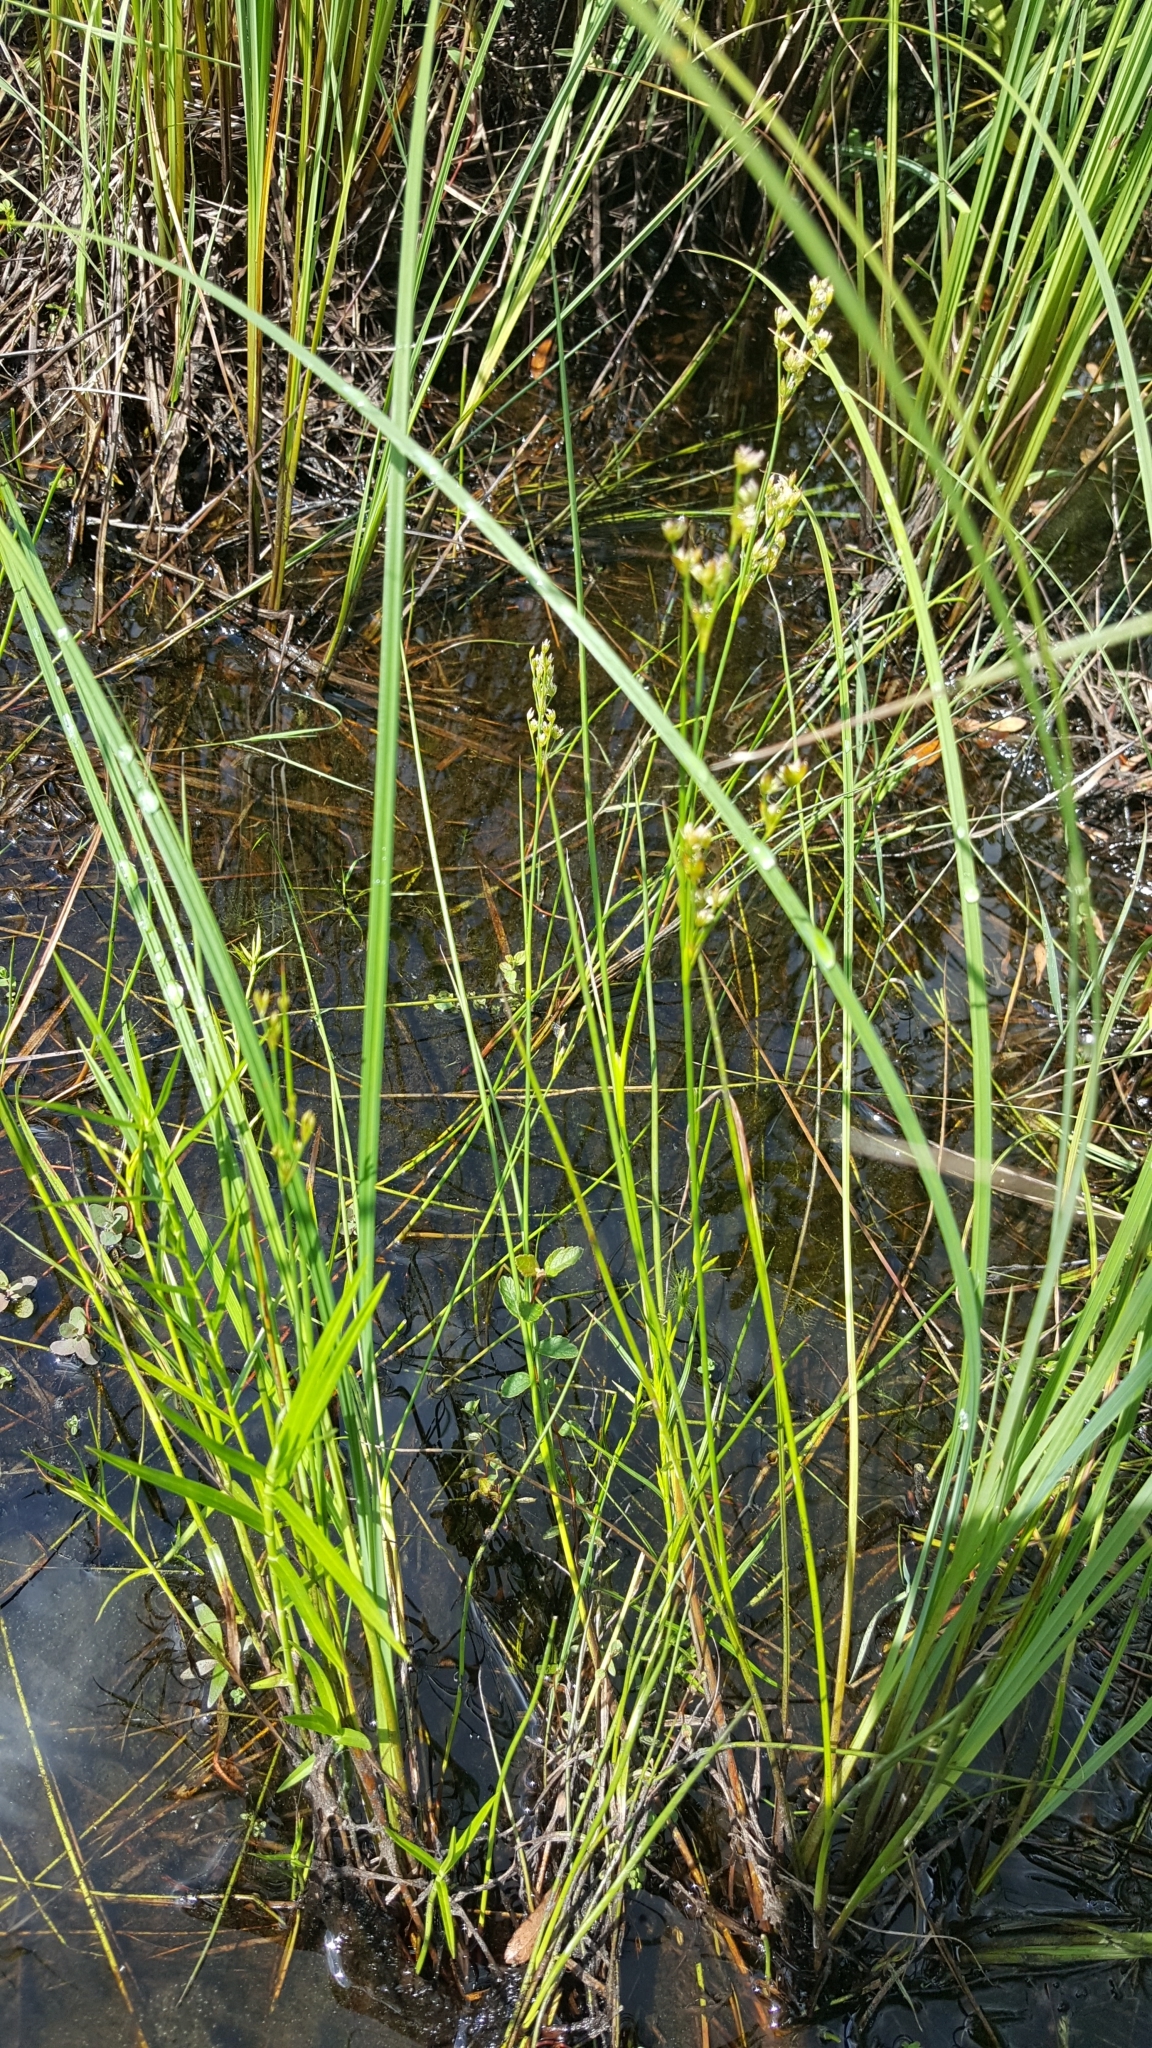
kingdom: Plantae
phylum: Tracheophyta
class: Liliopsida
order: Poales
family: Cyperaceae
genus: Dulichium
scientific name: Dulichium arundinaceum
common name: Three-way sedge
